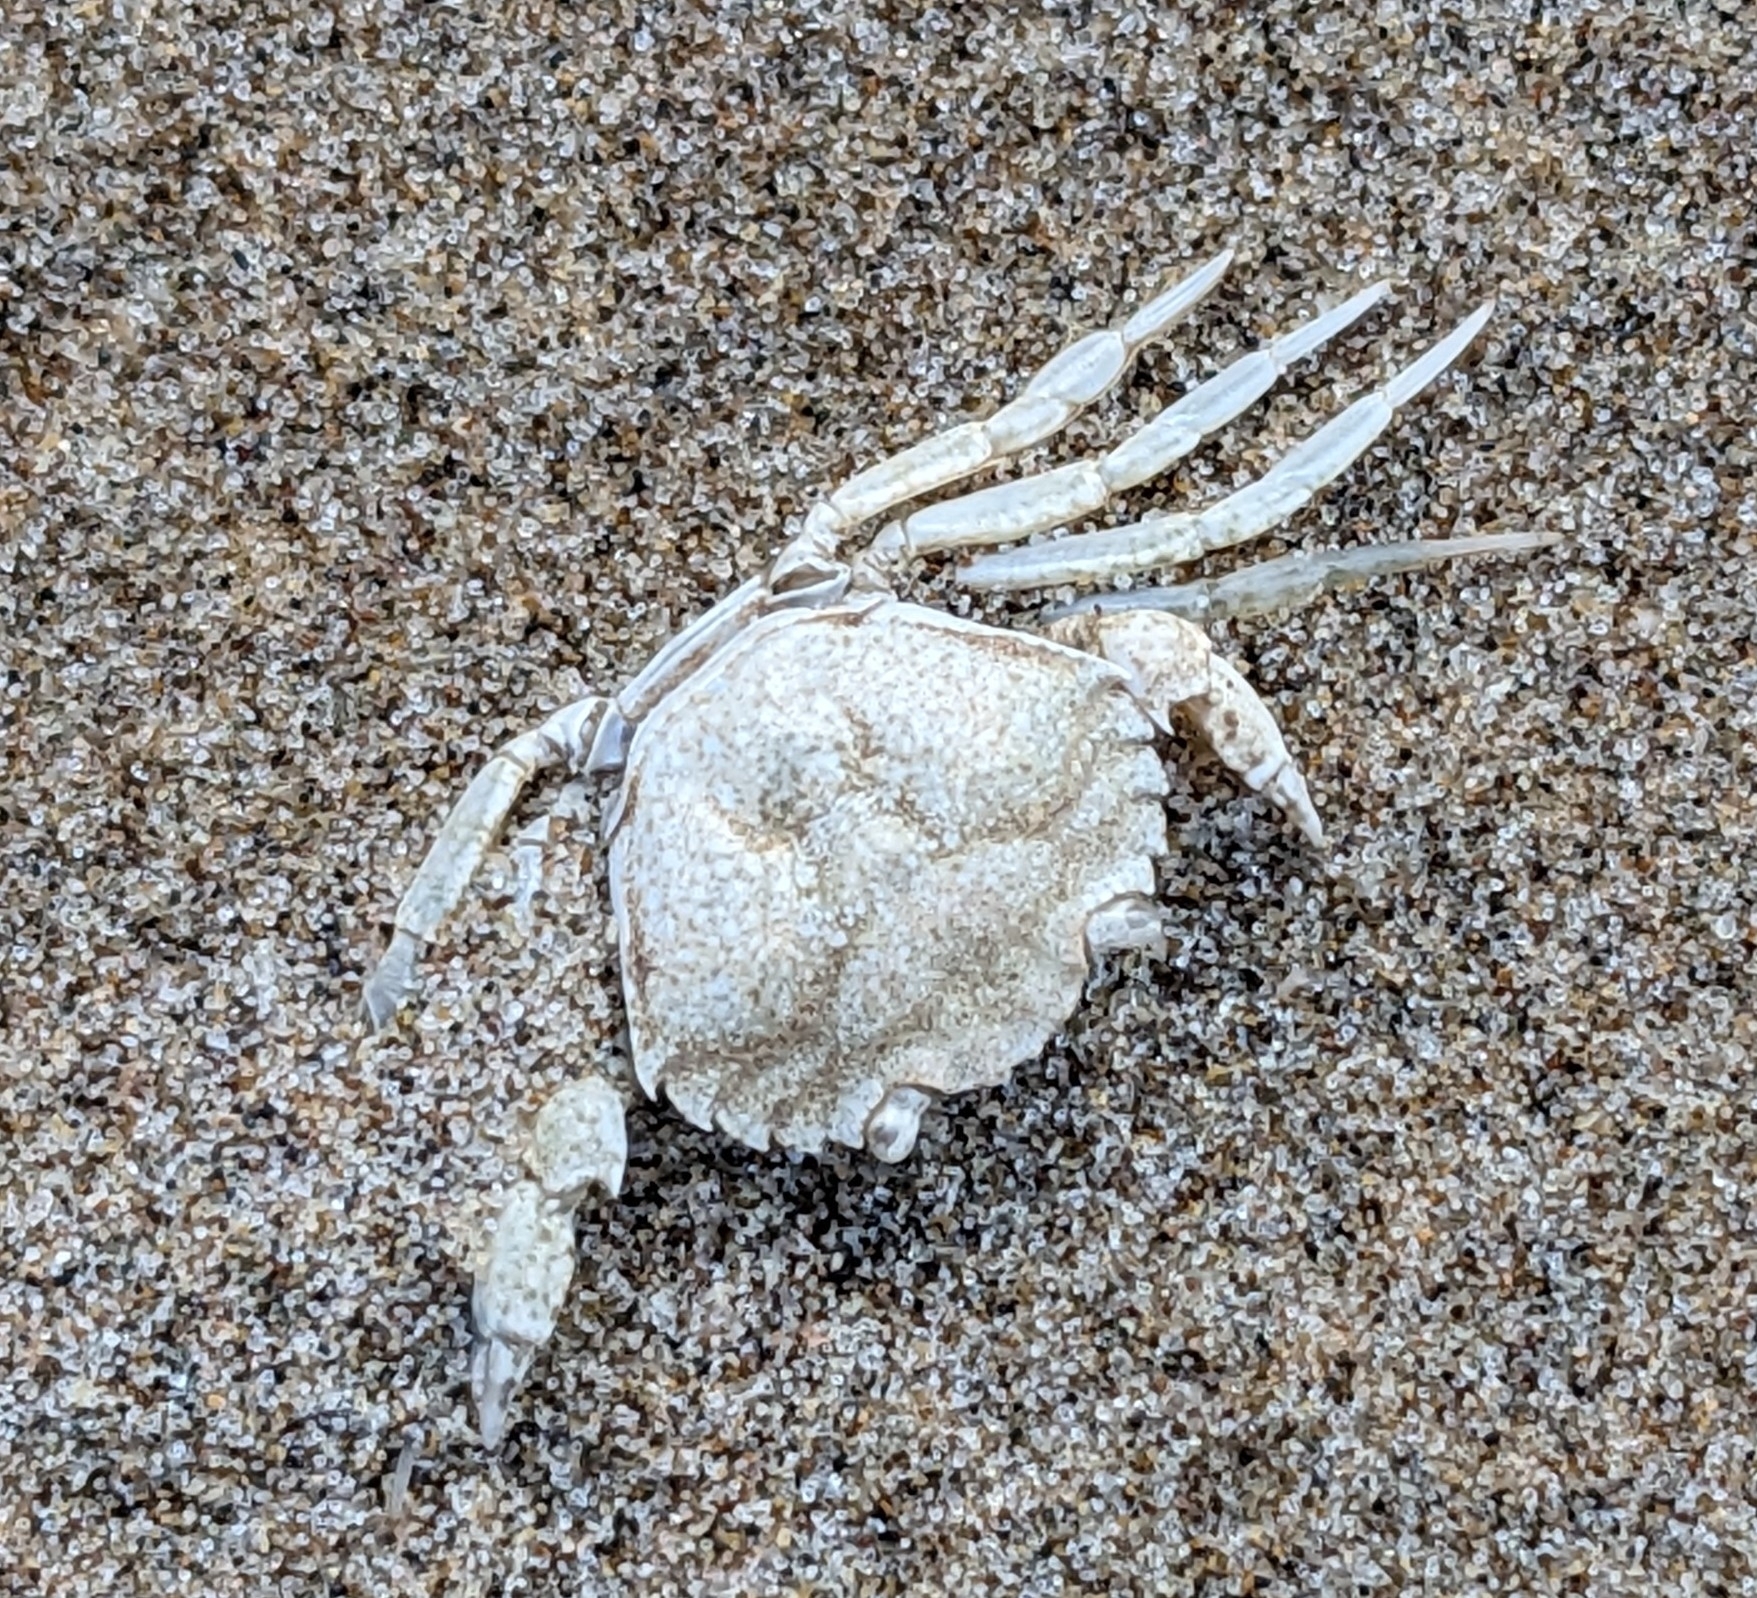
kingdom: Animalia
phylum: Arthropoda
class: Malacostraca
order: Decapoda
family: Carcinidae
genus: Carcinus
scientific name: Carcinus maenas
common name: European green crab
